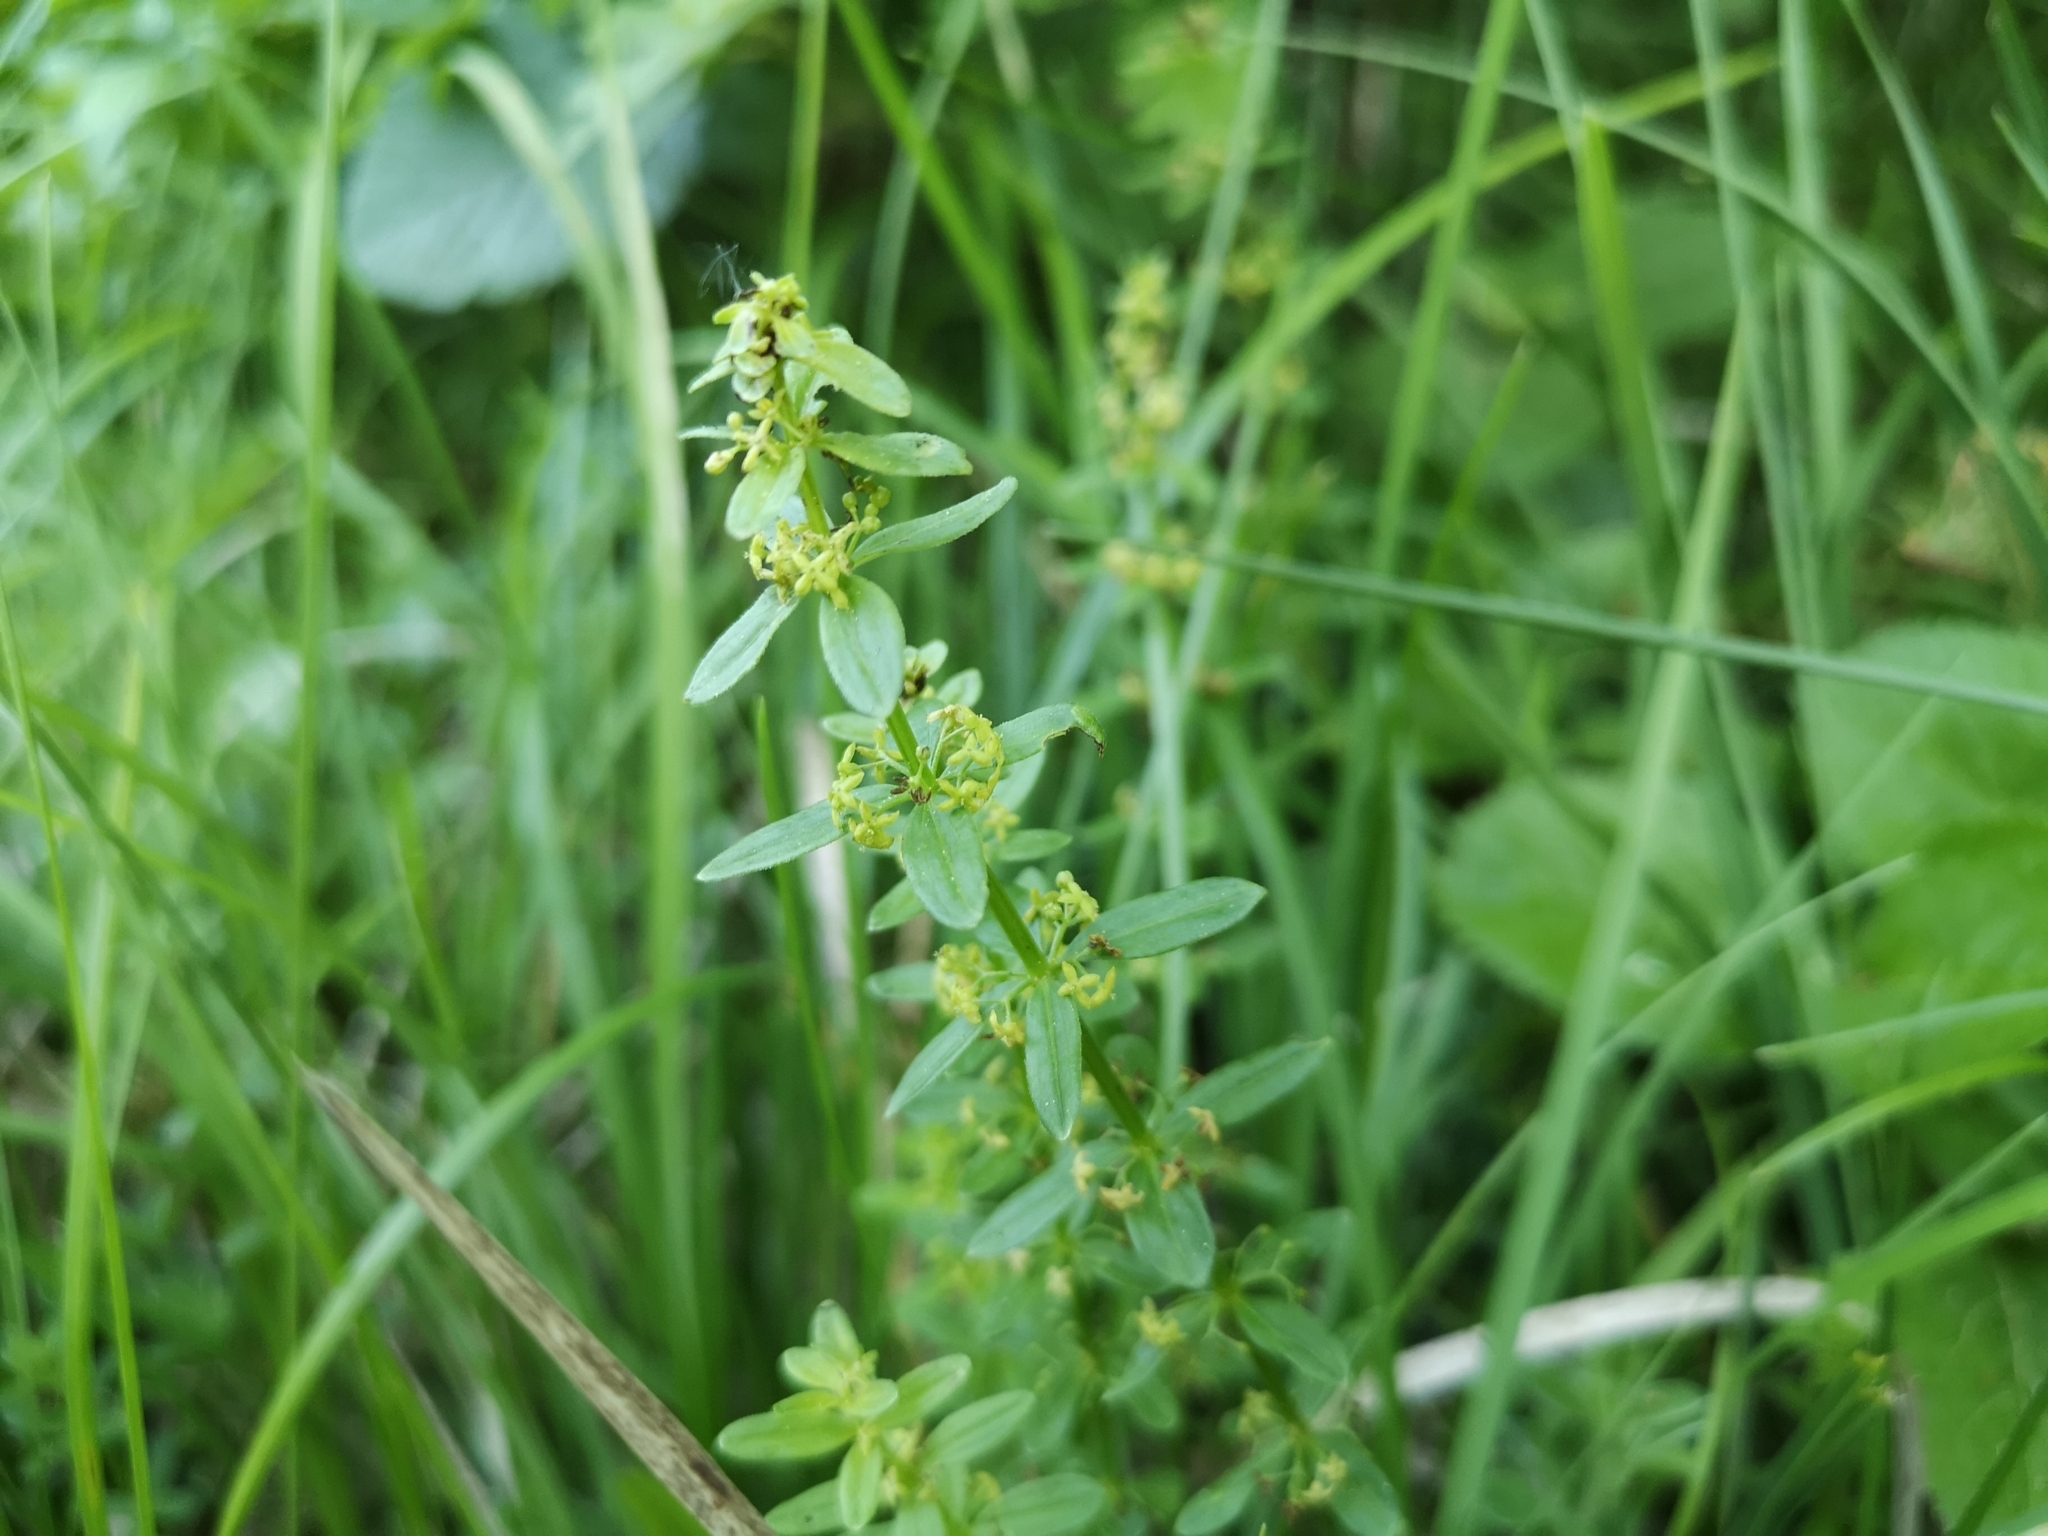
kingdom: Plantae
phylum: Tracheophyta
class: Magnoliopsida
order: Gentianales
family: Rubiaceae
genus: Cruciata
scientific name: Cruciata glabra
